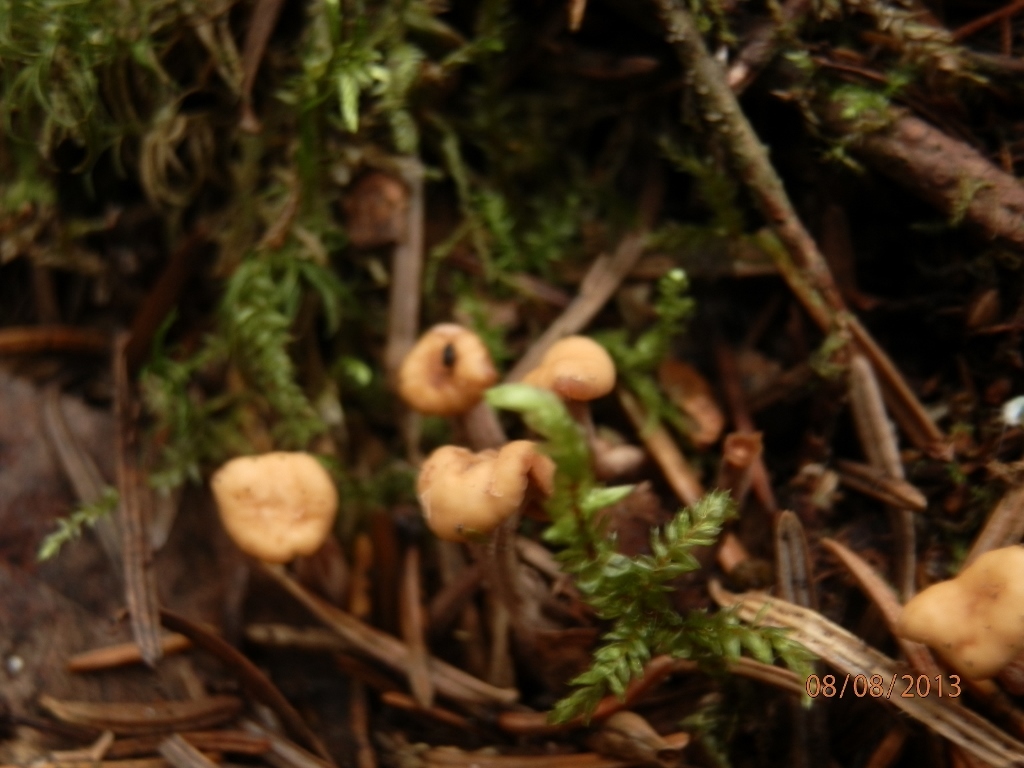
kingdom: Fungi
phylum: Ascomycota
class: Leotiomycetes
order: Rhytismatales
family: Cudoniaceae
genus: Cudonia
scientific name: Cudonia circinans
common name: Redleg jellybaby
